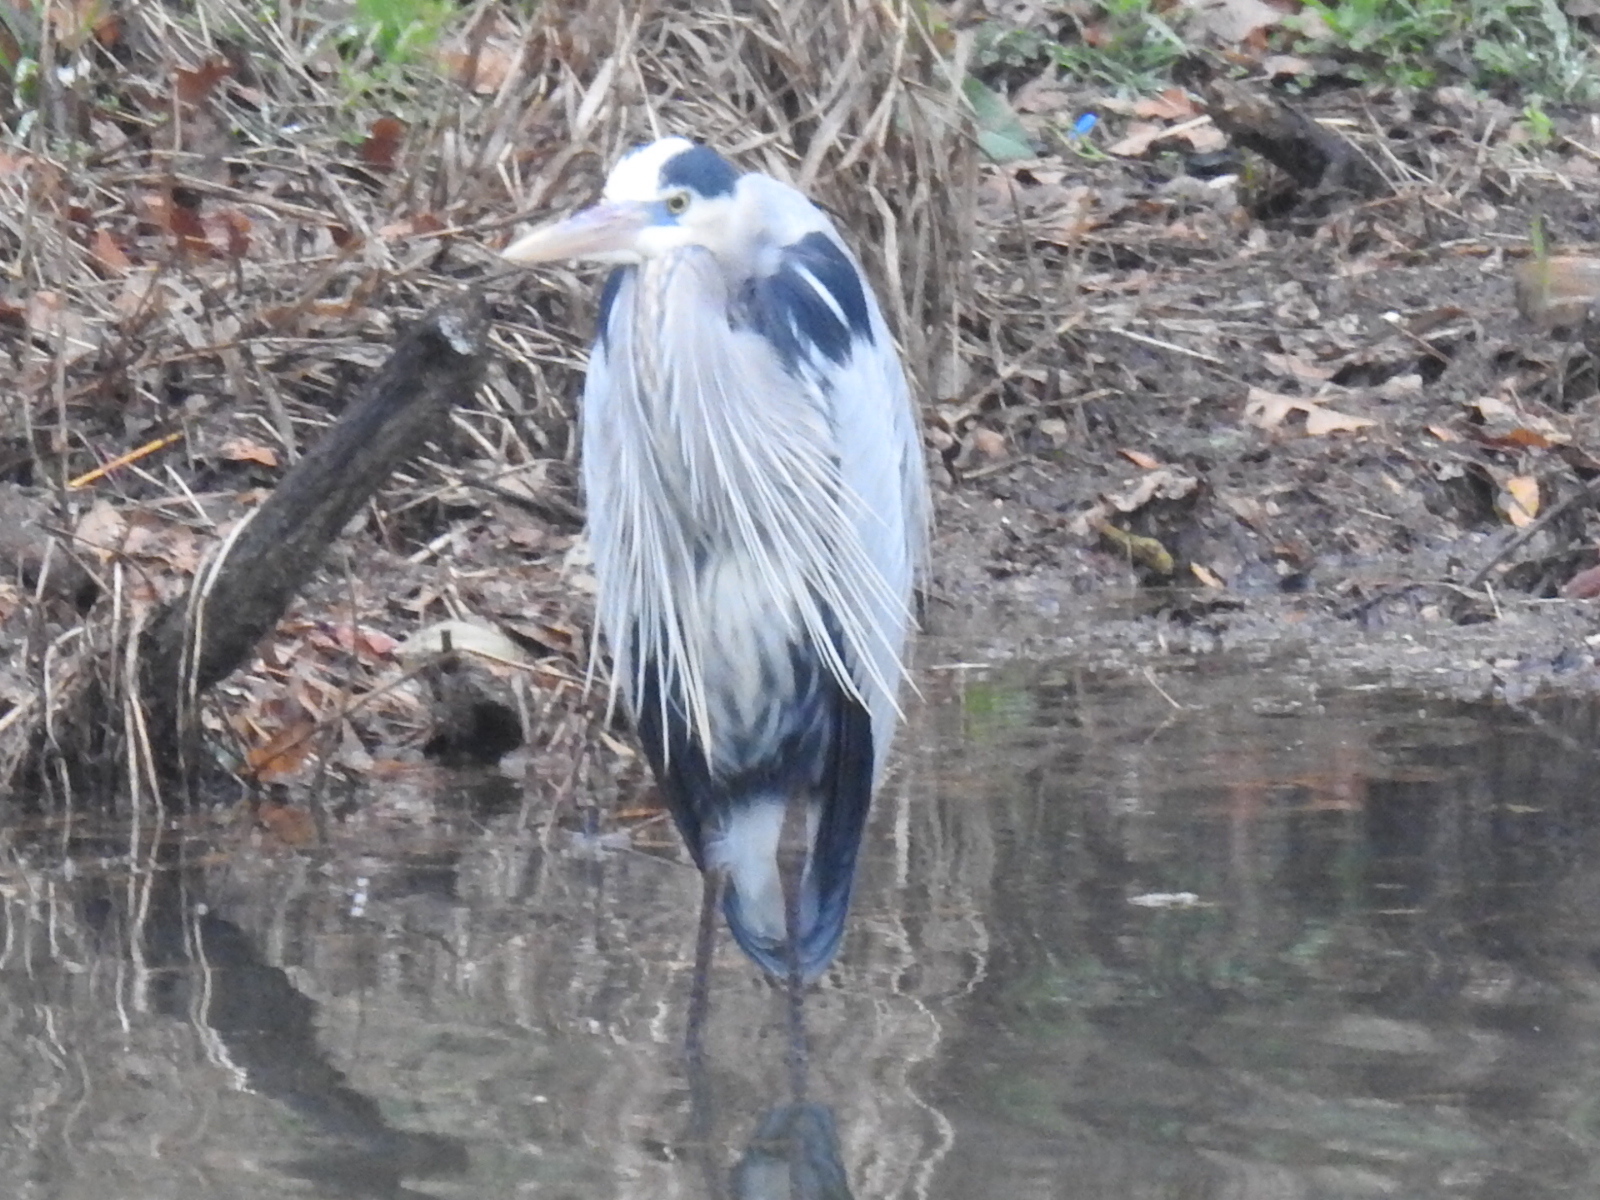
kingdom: Animalia
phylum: Chordata
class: Aves
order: Pelecaniformes
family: Ardeidae
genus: Ardea
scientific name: Ardea herodias
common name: Great blue heron
